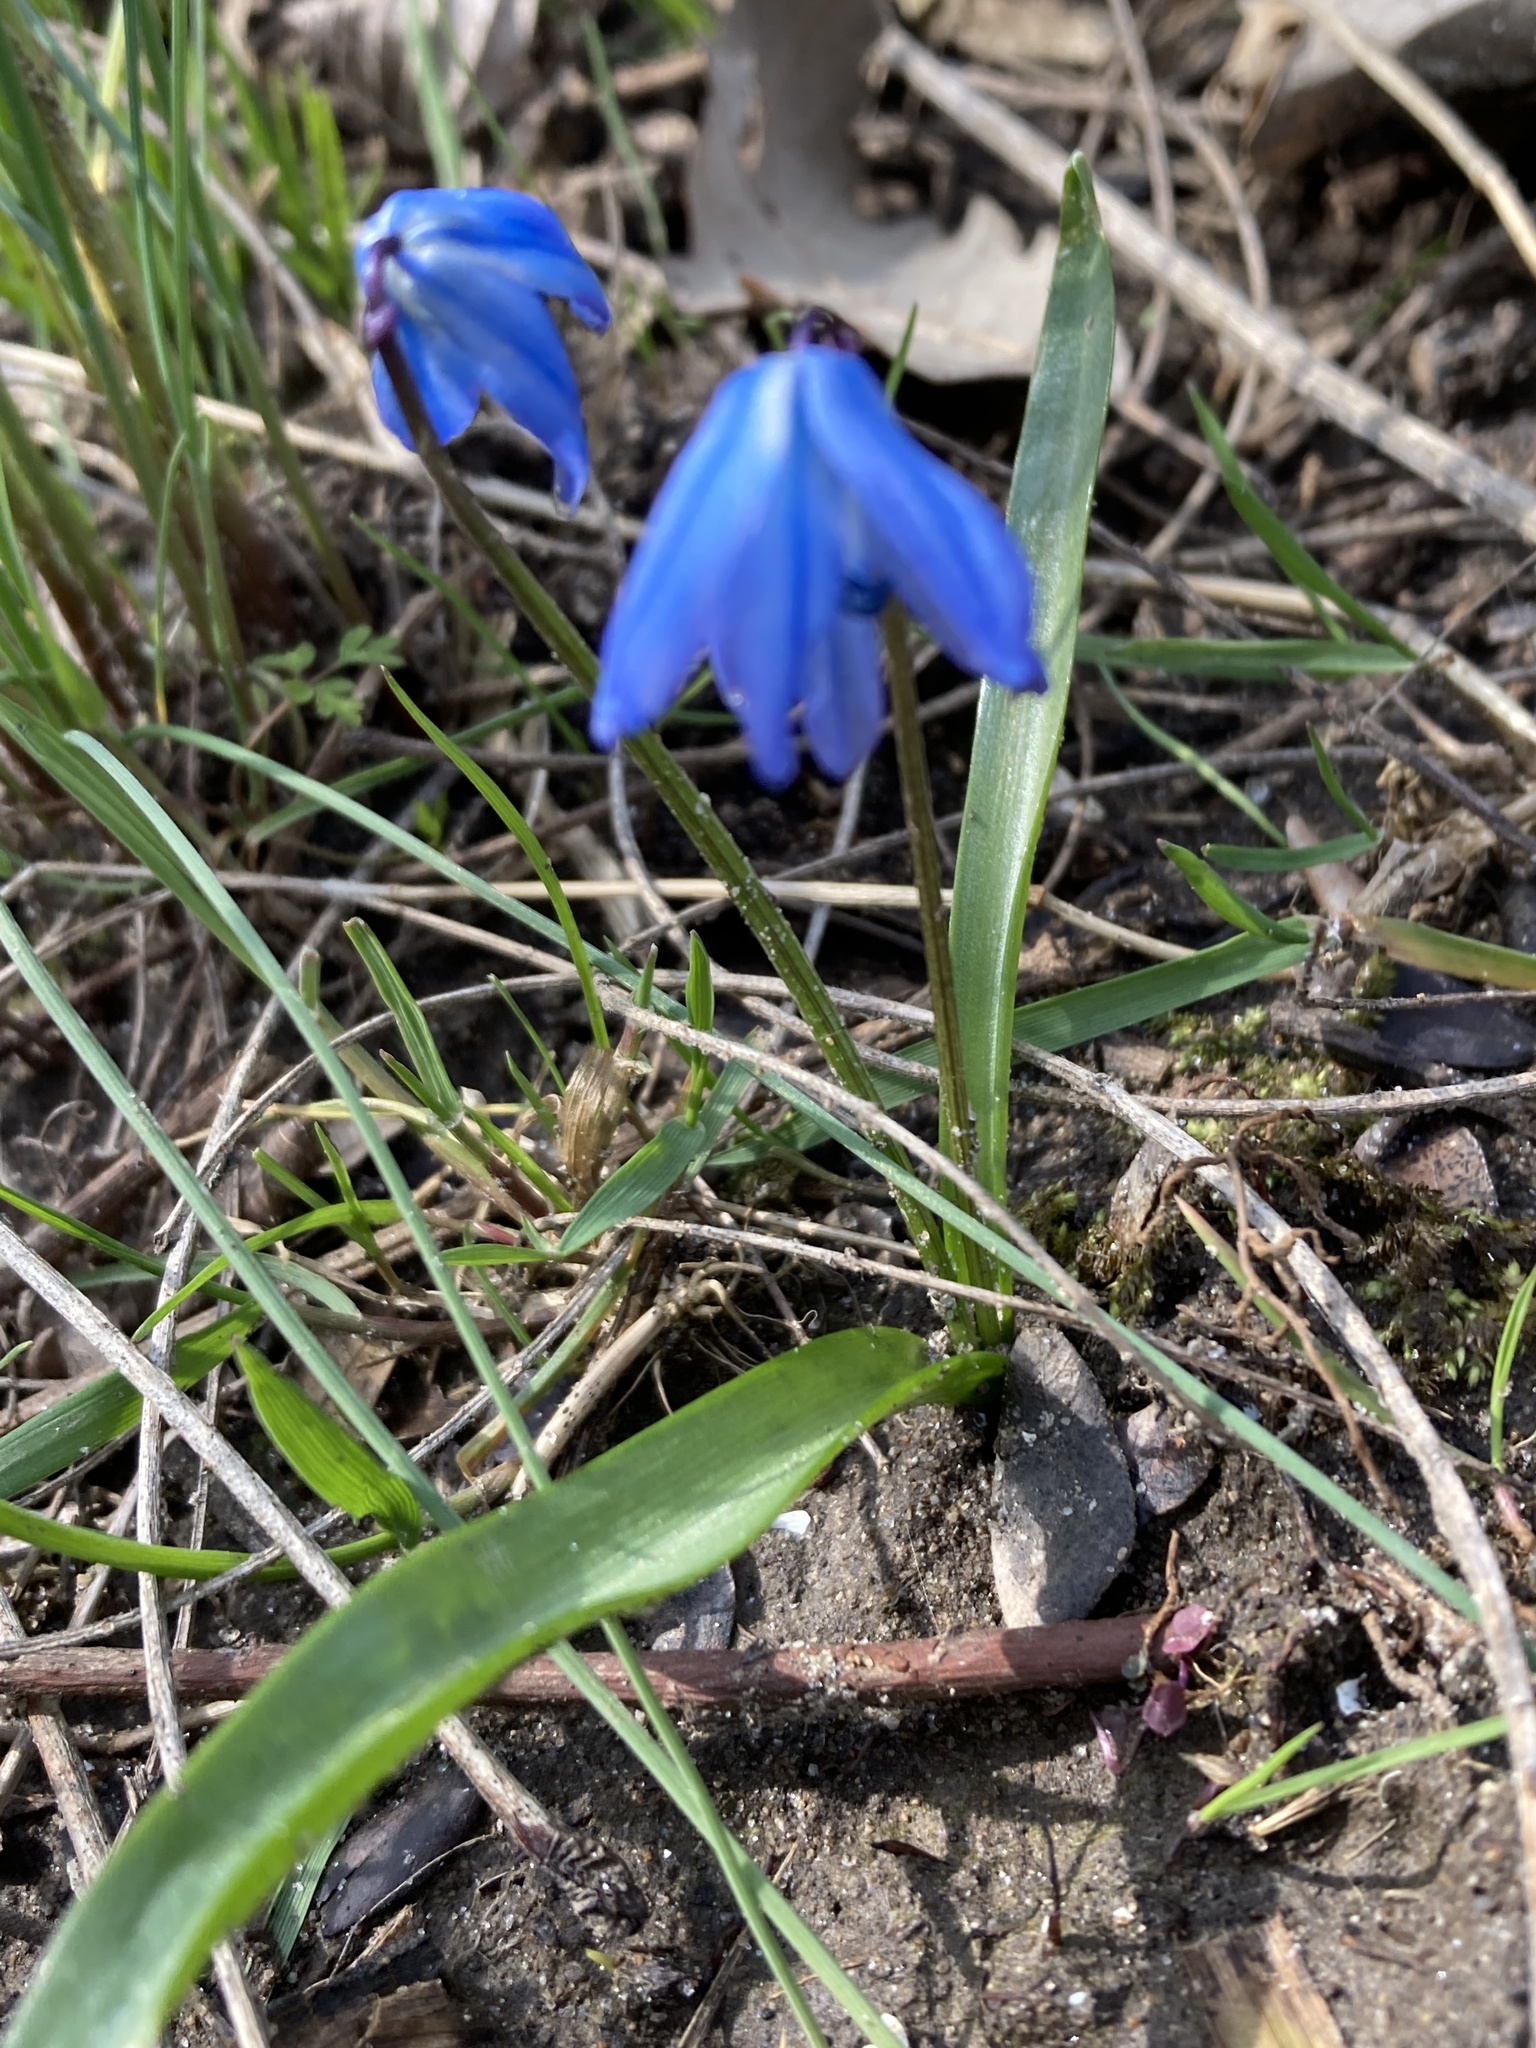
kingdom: Plantae
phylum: Tracheophyta
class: Liliopsida
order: Asparagales
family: Asparagaceae
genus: Scilla
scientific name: Scilla siberica
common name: Siberian squill
